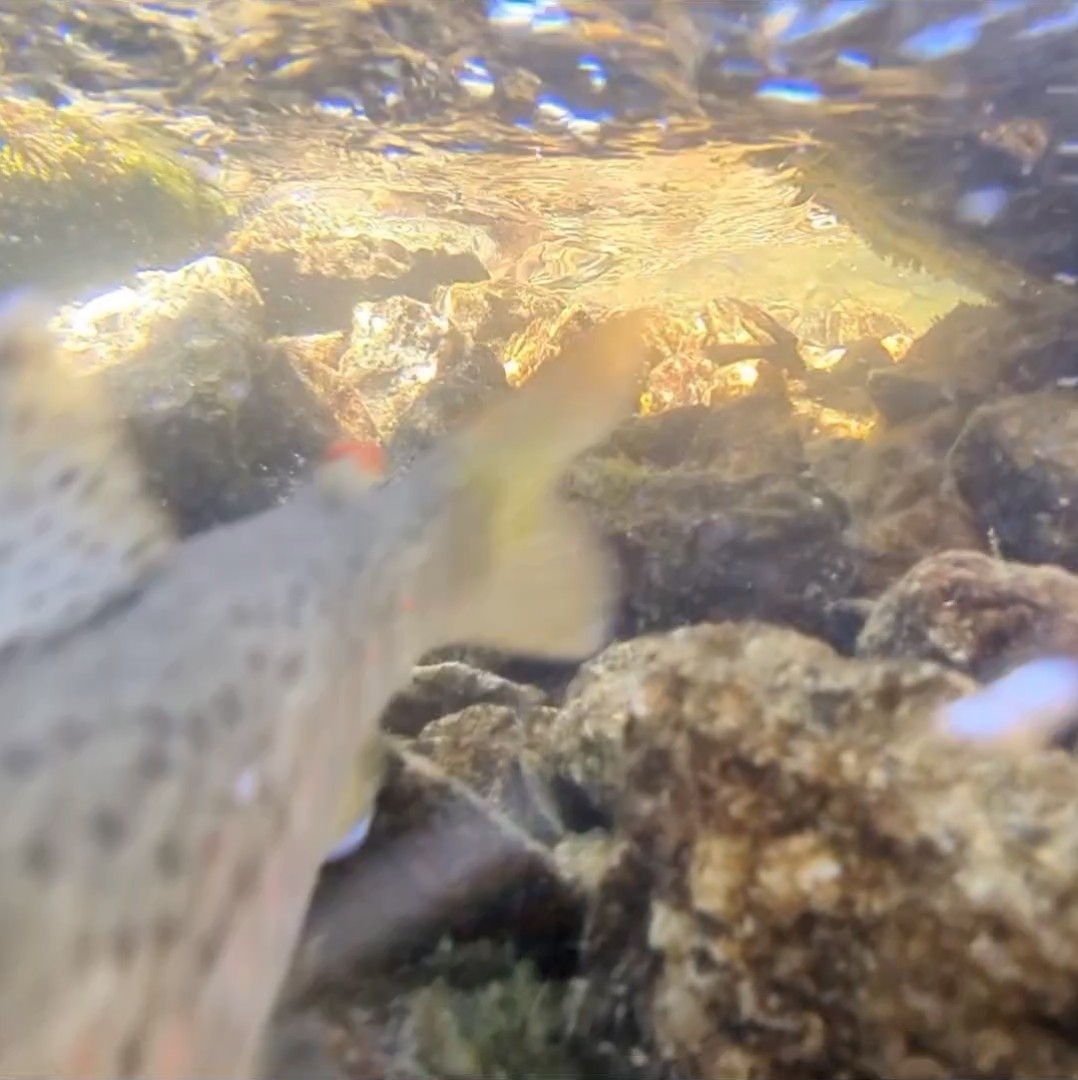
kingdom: Animalia
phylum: Chordata
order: Salmoniformes
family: Salmonidae
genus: Salmo
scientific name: Salmo trutta
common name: Brown trout
